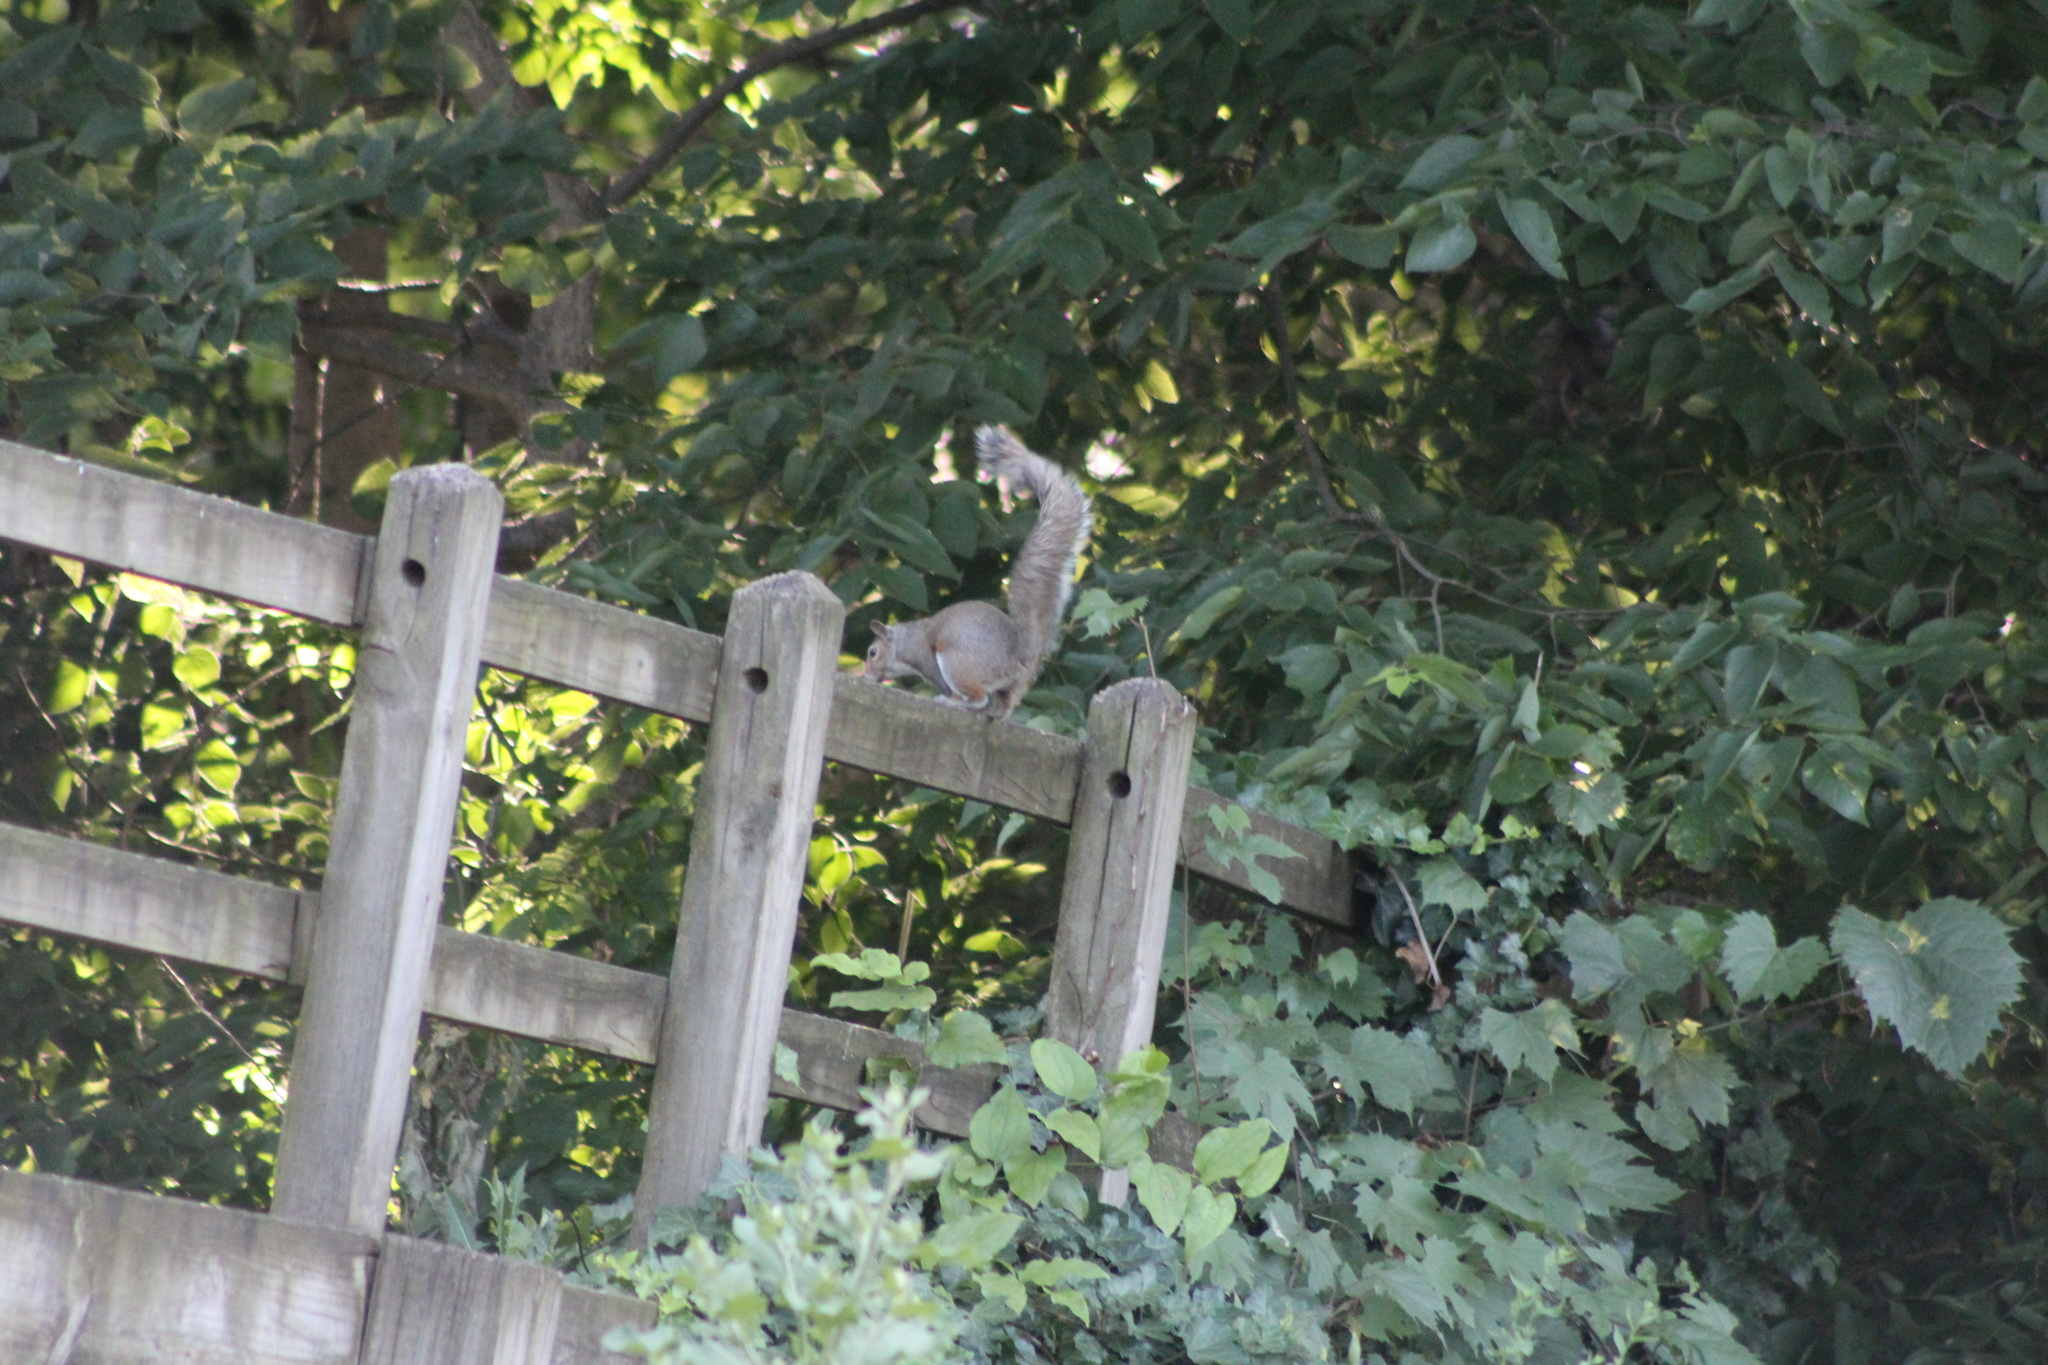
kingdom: Animalia
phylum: Chordata
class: Mammalia
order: Rodentia
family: Sciuridae
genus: Sciurus
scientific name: Sciurus carolinensis
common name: Eastern gray squirrel
